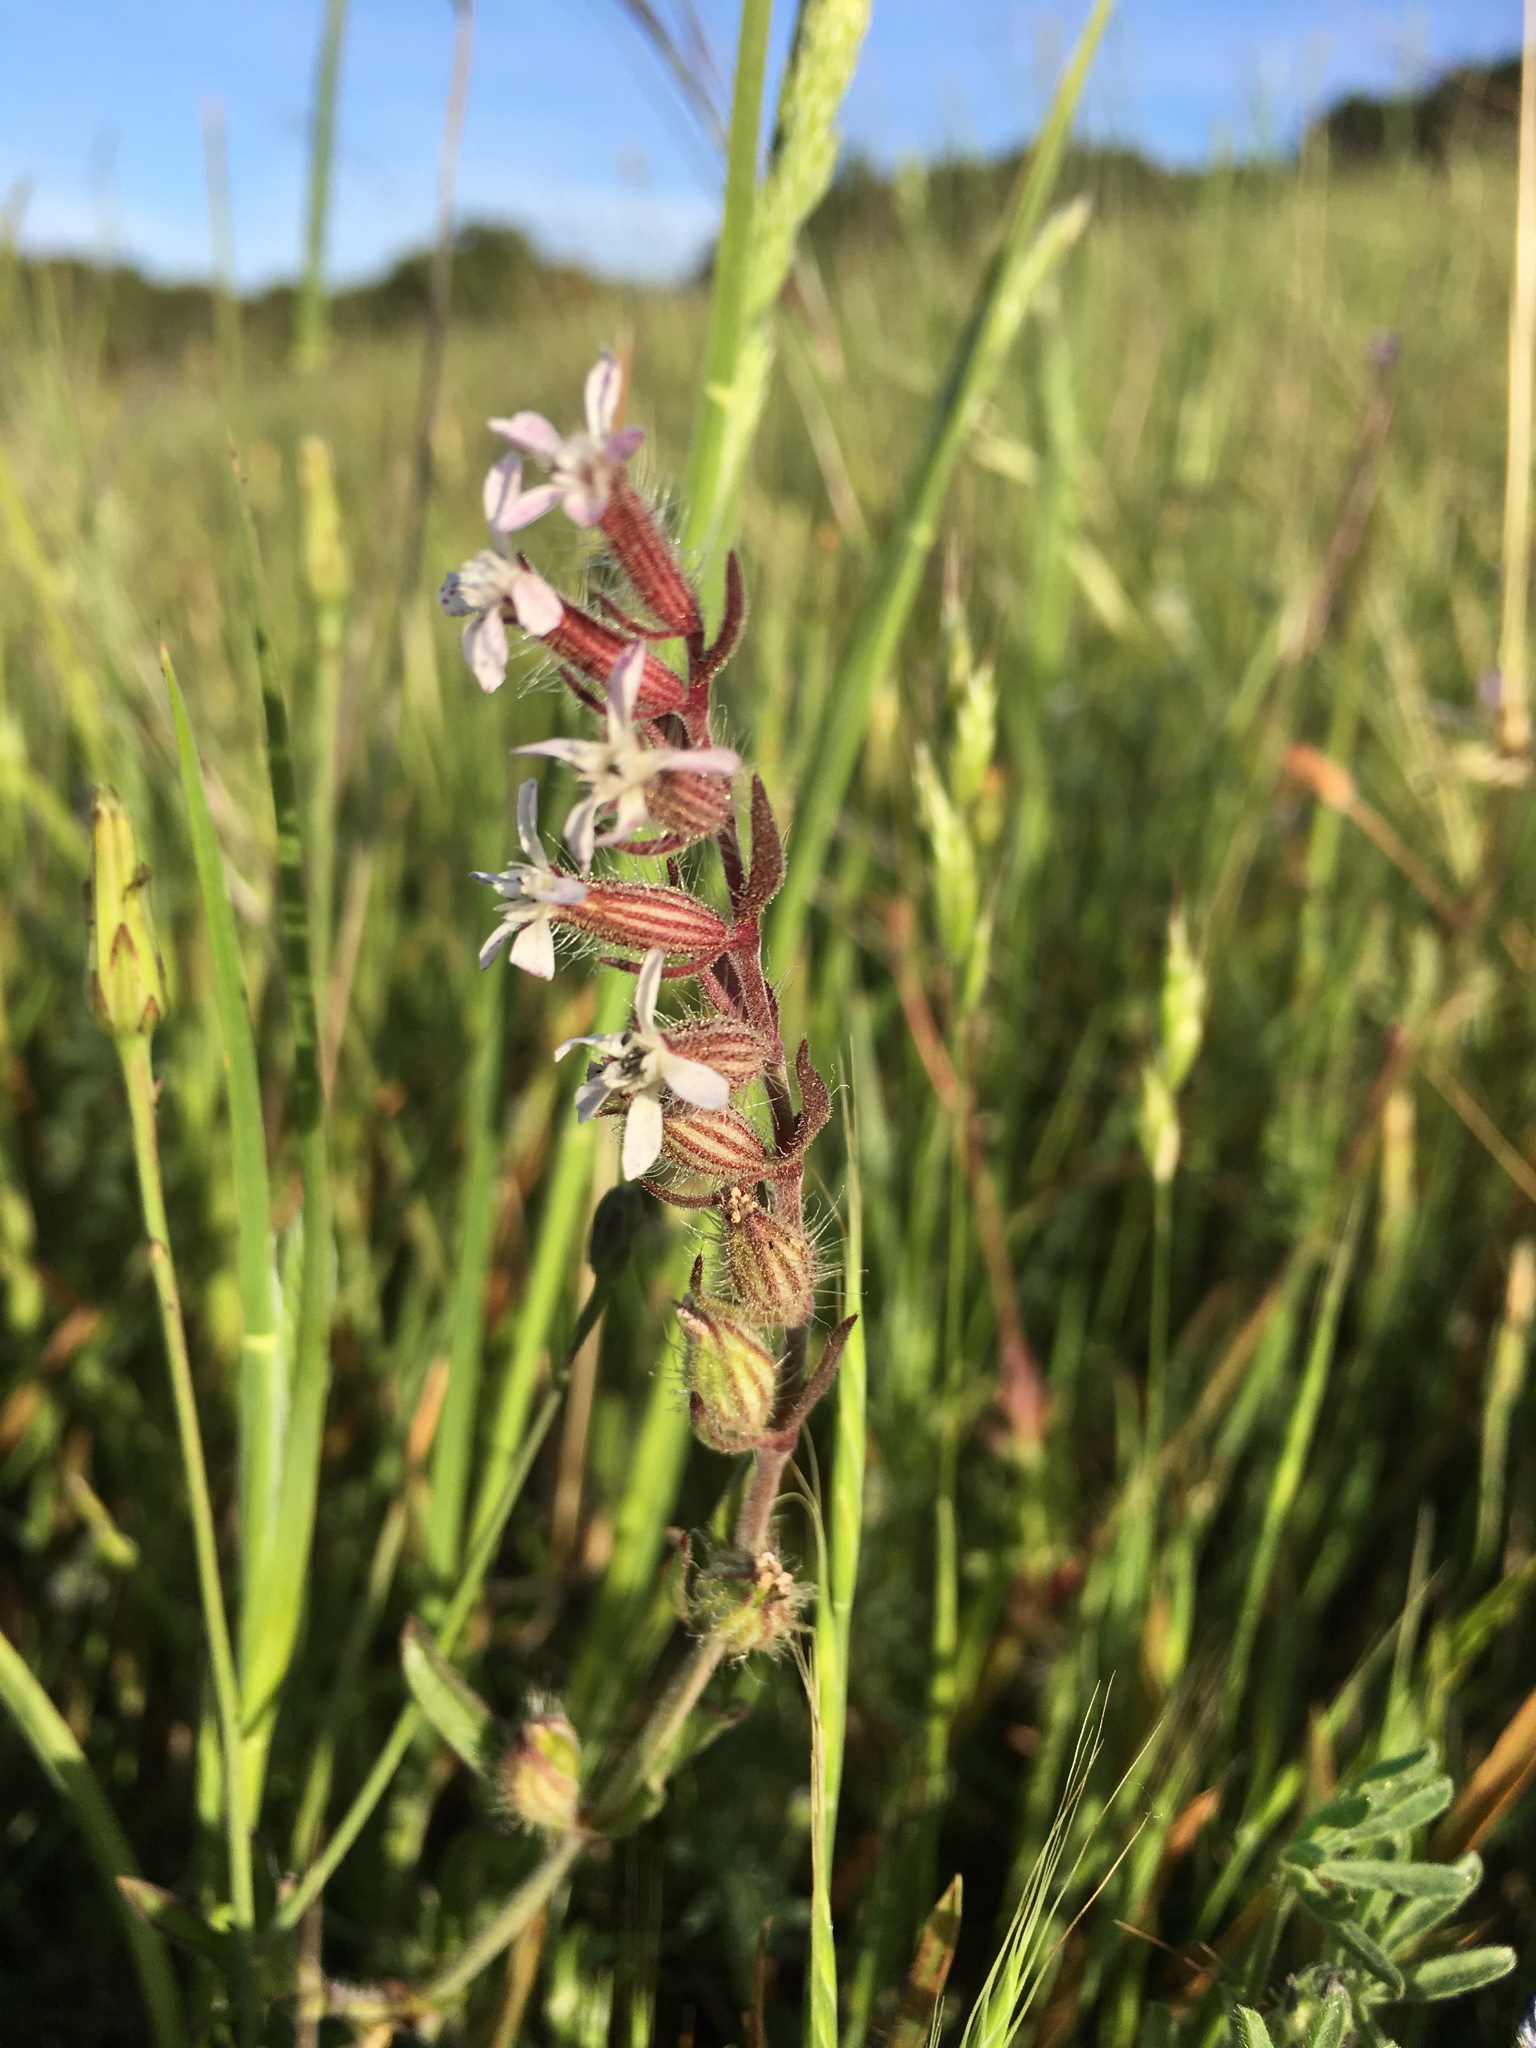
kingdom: Plantae
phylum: Tracheophyta
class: Magnoliopsida
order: Caryophyllales
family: Caryophyllaceae
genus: Silene
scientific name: Silene gallica
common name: Small-flowered catchfly
